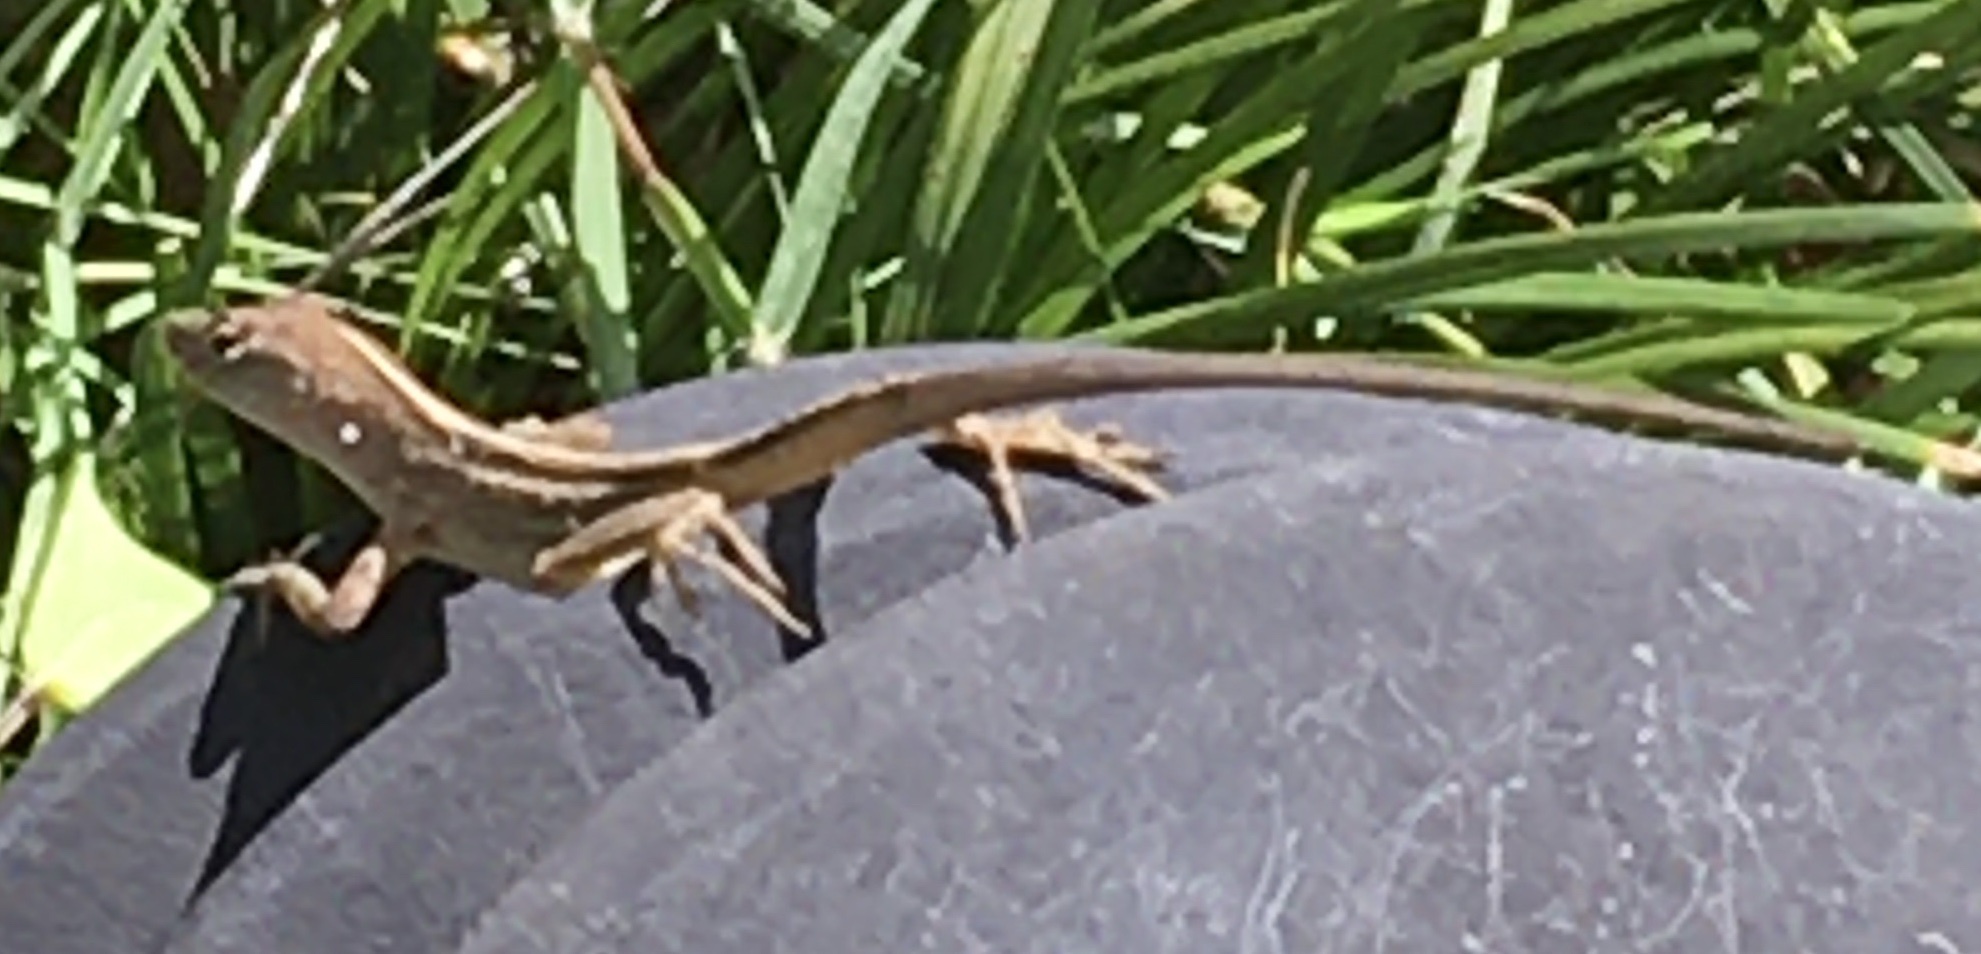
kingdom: Animalia
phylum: Chordata
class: Squamata
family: Dactyloidae
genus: Anolis
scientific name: Anolis sagrei
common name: Brown anole
